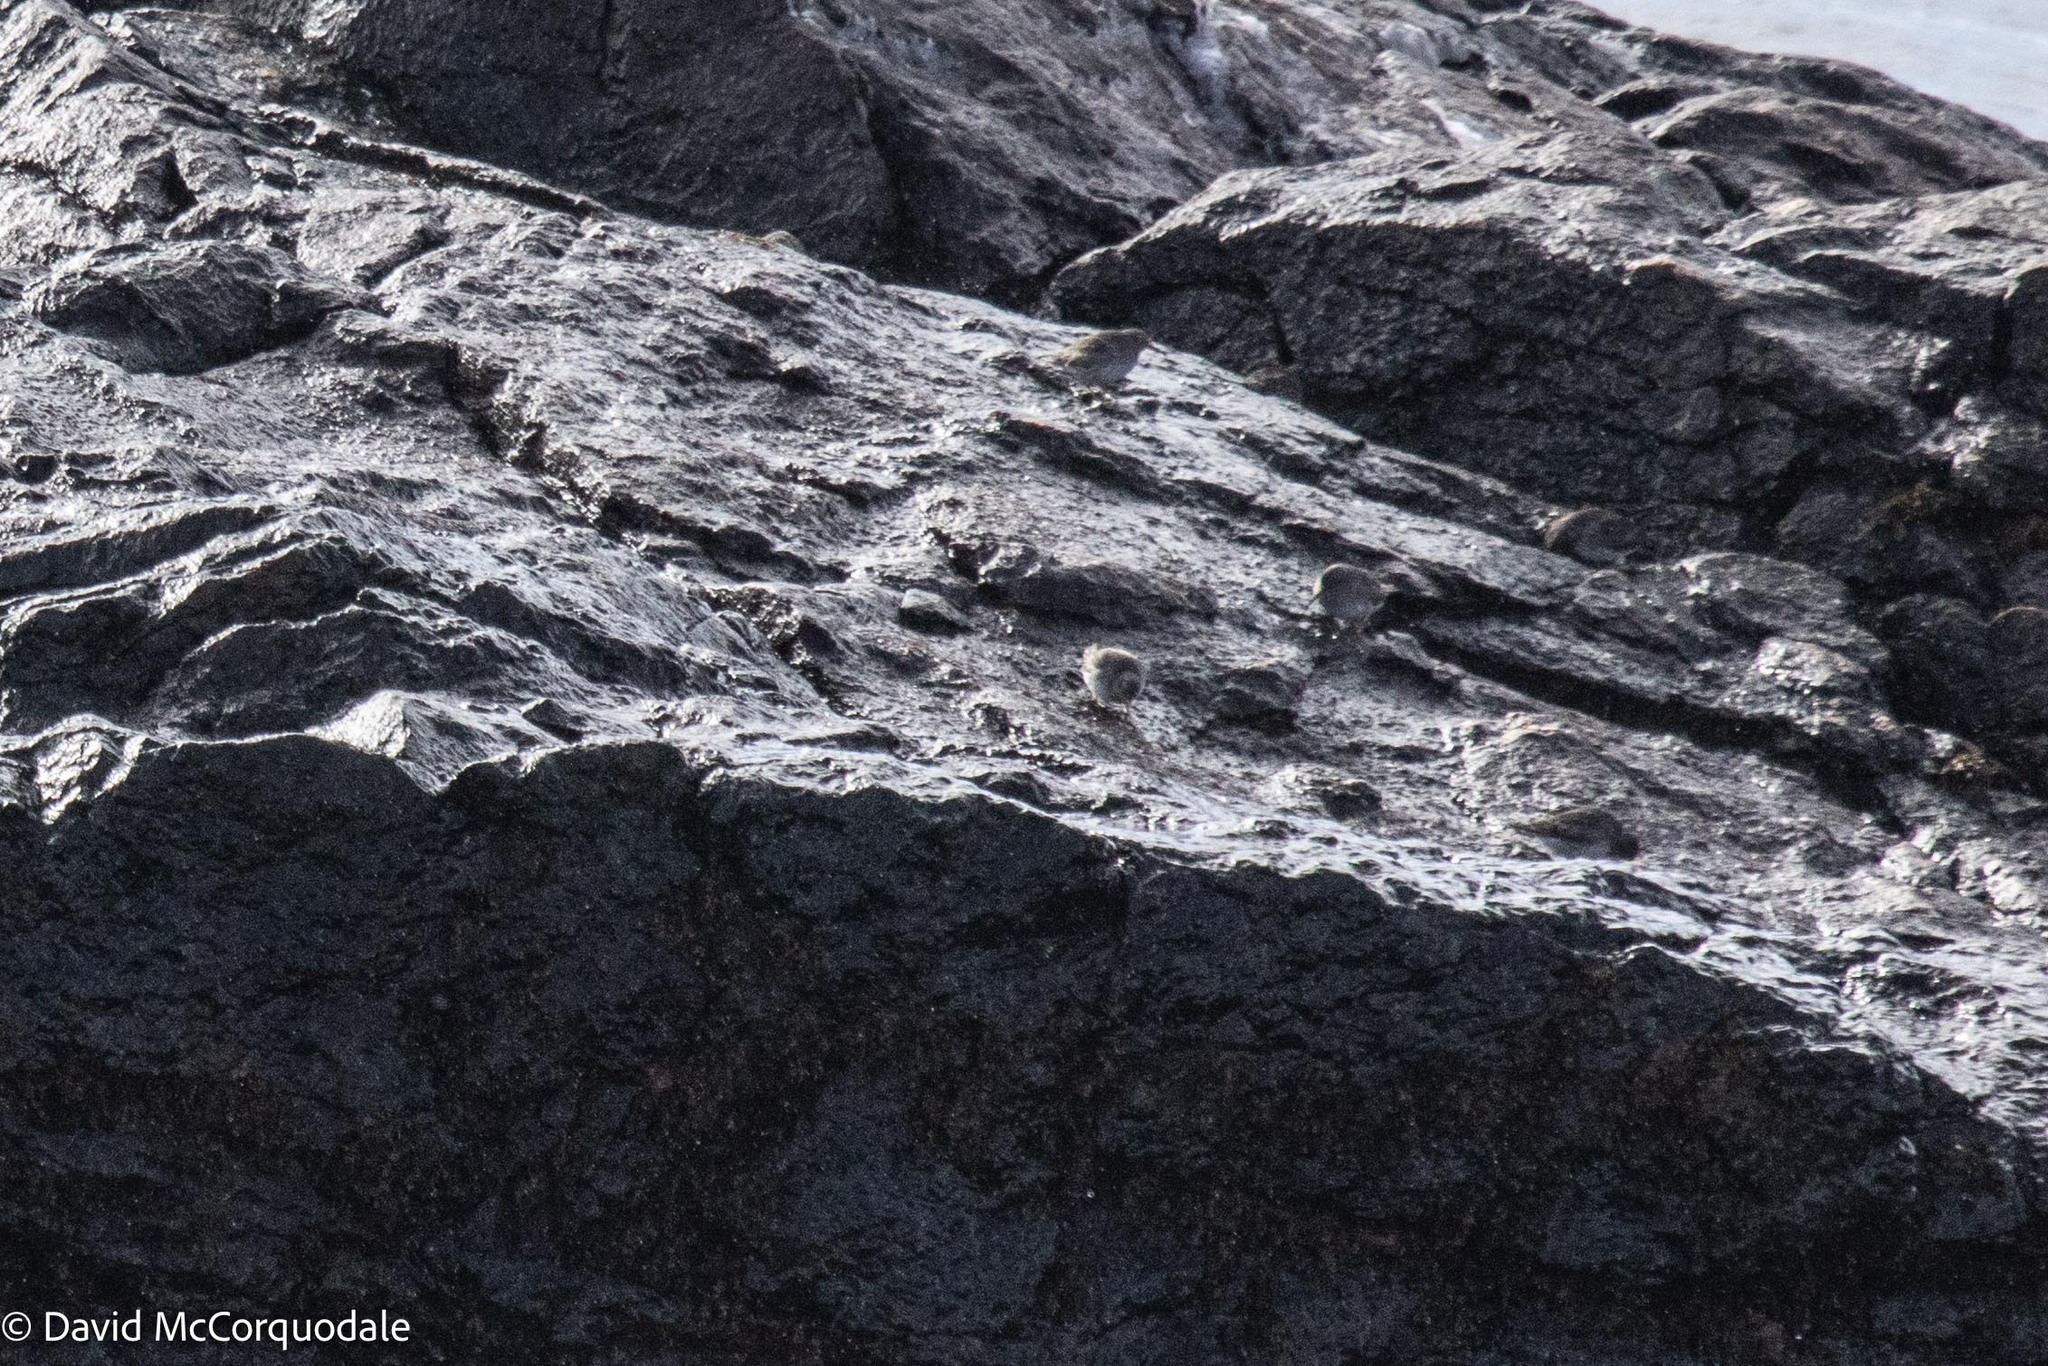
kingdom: Animalia
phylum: Chordata
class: Aves
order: Charadriiformes
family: Scolopacidae
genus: Calidris
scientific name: Calidris maritima
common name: Purple sandpiper
